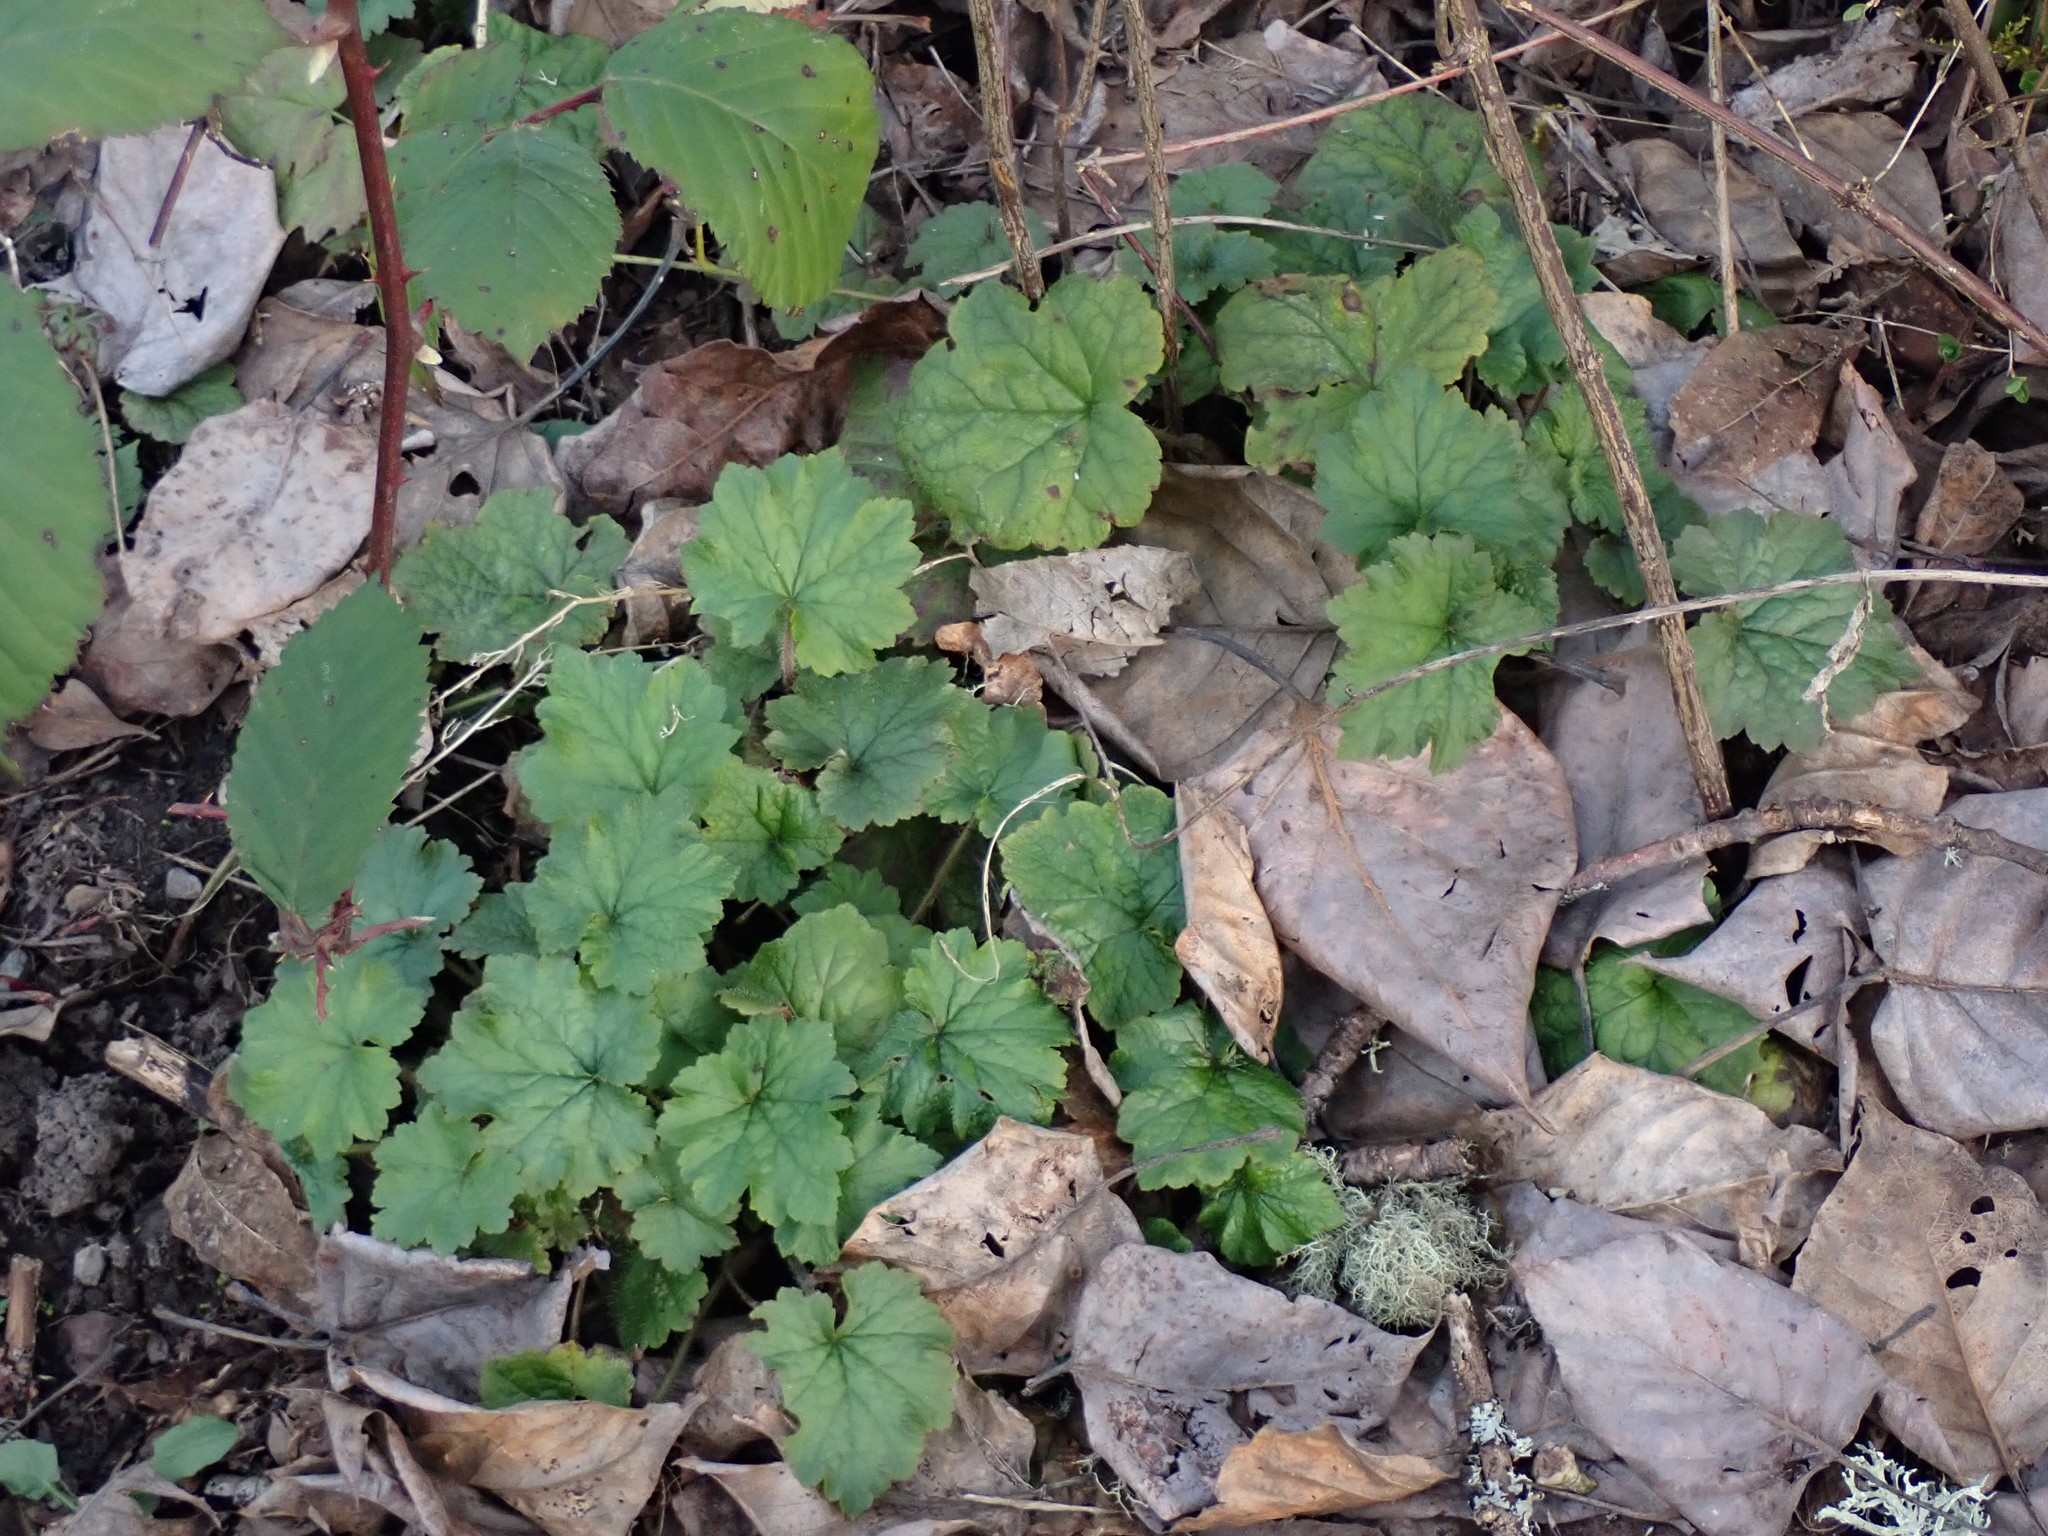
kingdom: Plantae
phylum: Tracheophyta
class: Magnoliopsida
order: Saxifragales
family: Saxifragaceae
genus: Tellima
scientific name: Tellima grandiflora
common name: Fringecups
